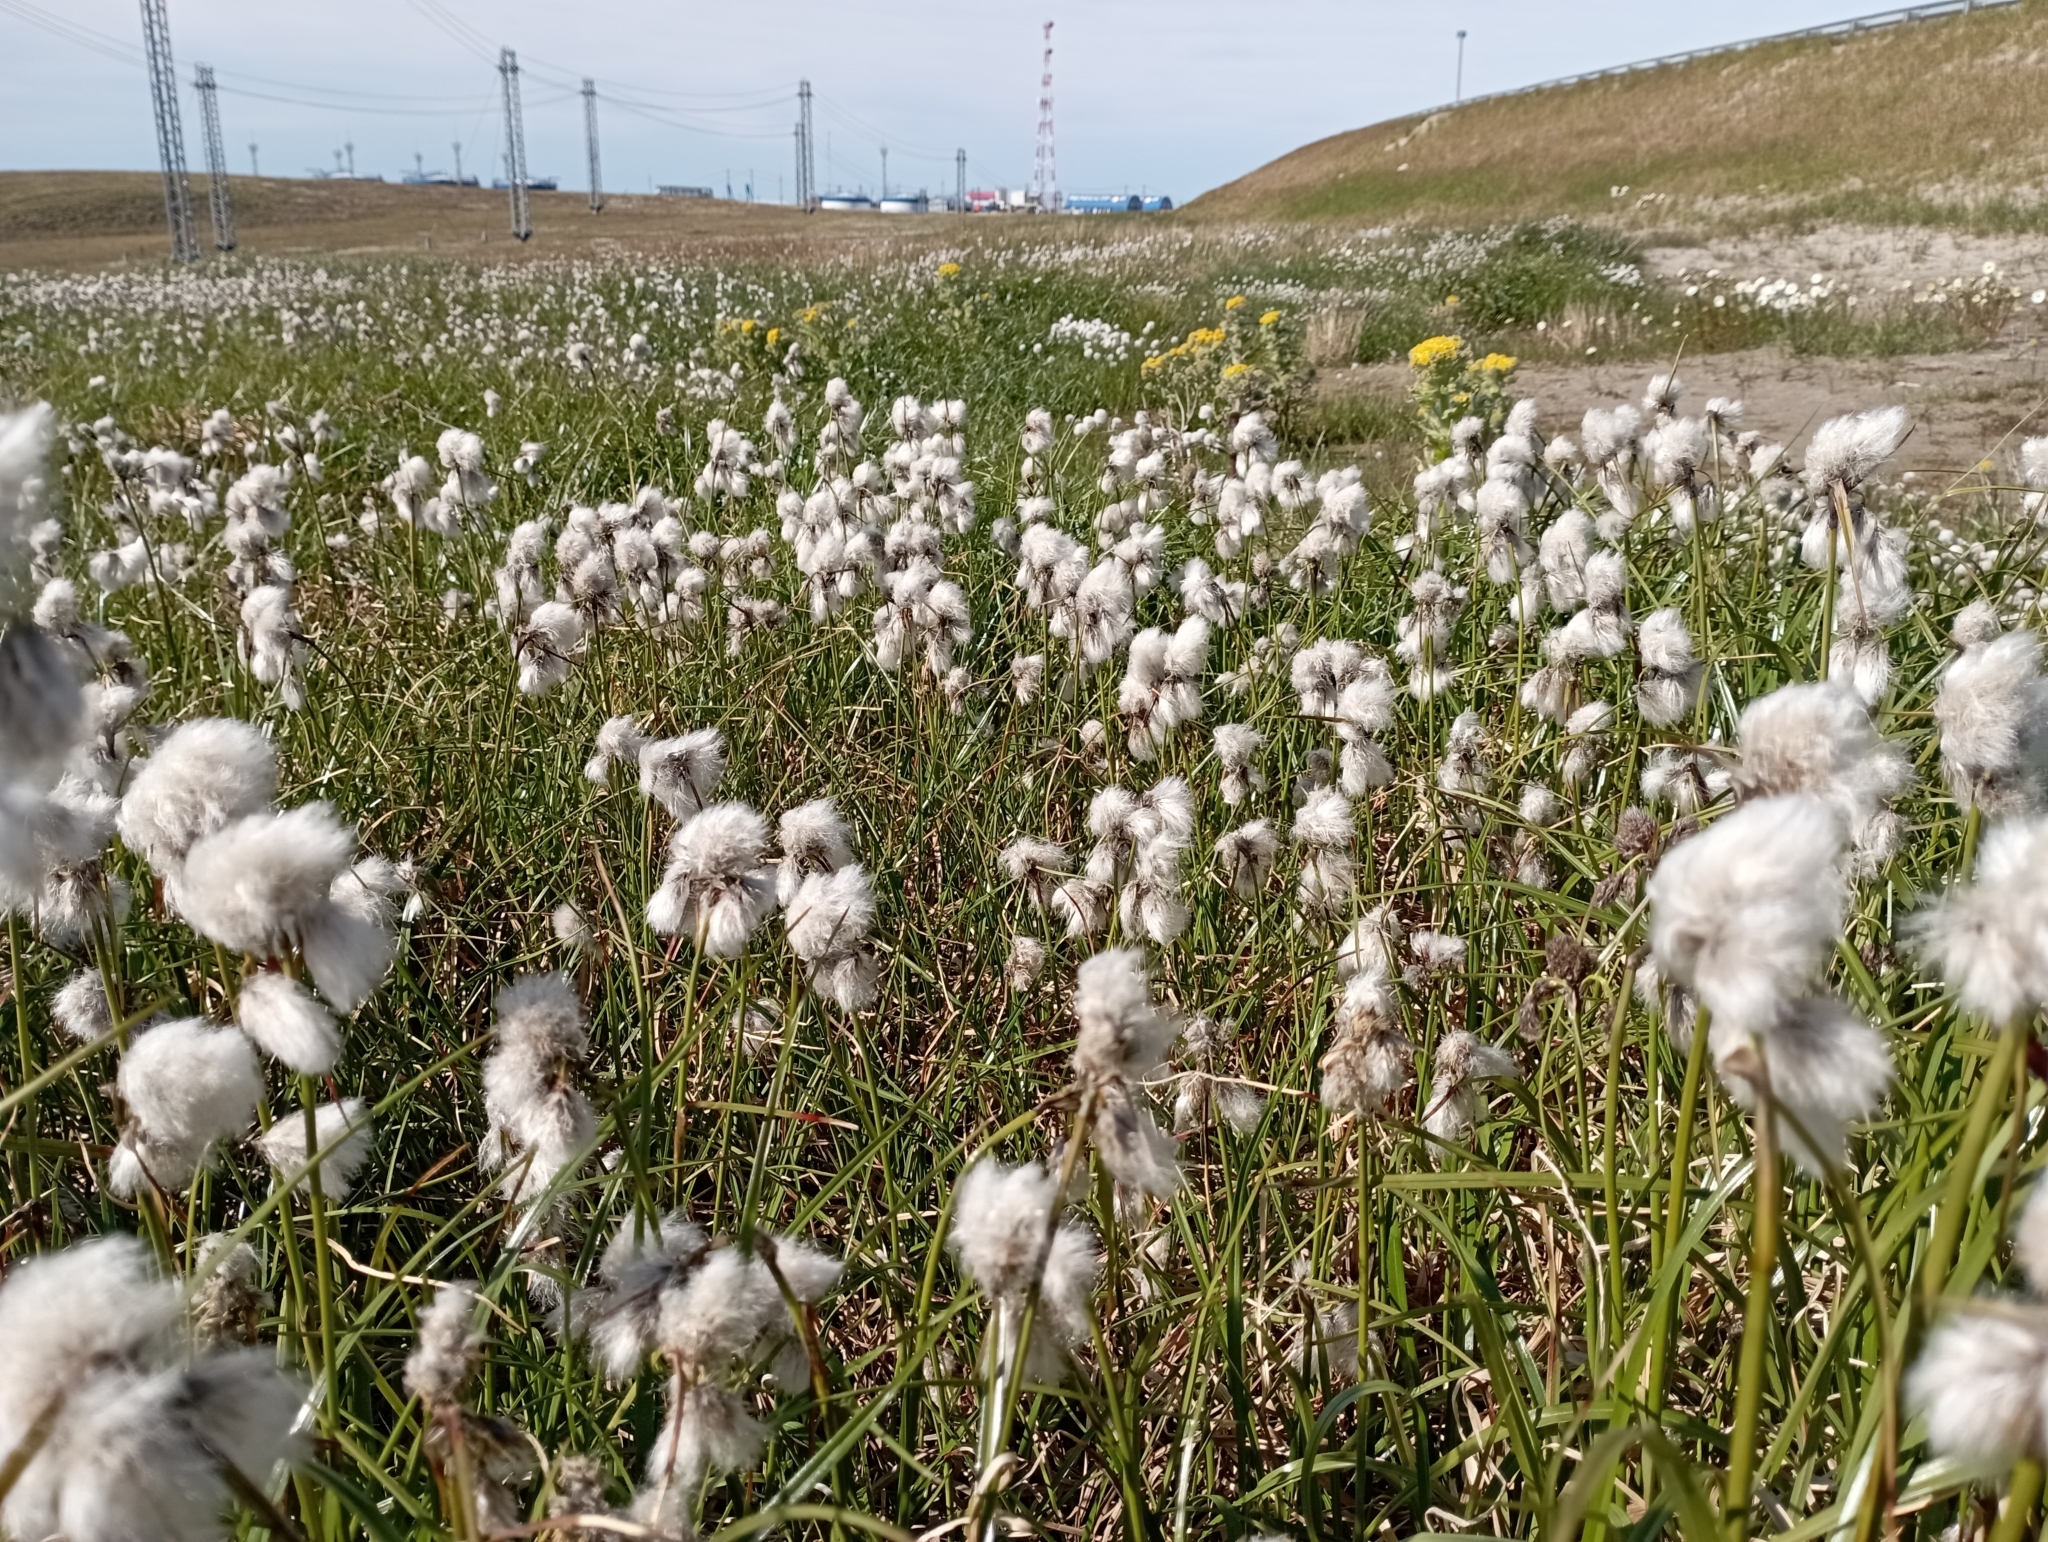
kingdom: Plantae
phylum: Tracheophyta
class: Liliopsida
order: Poales
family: Cyperaceae
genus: Eriophorum
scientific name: Eriophorum angustifolium
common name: Common cottongrass
